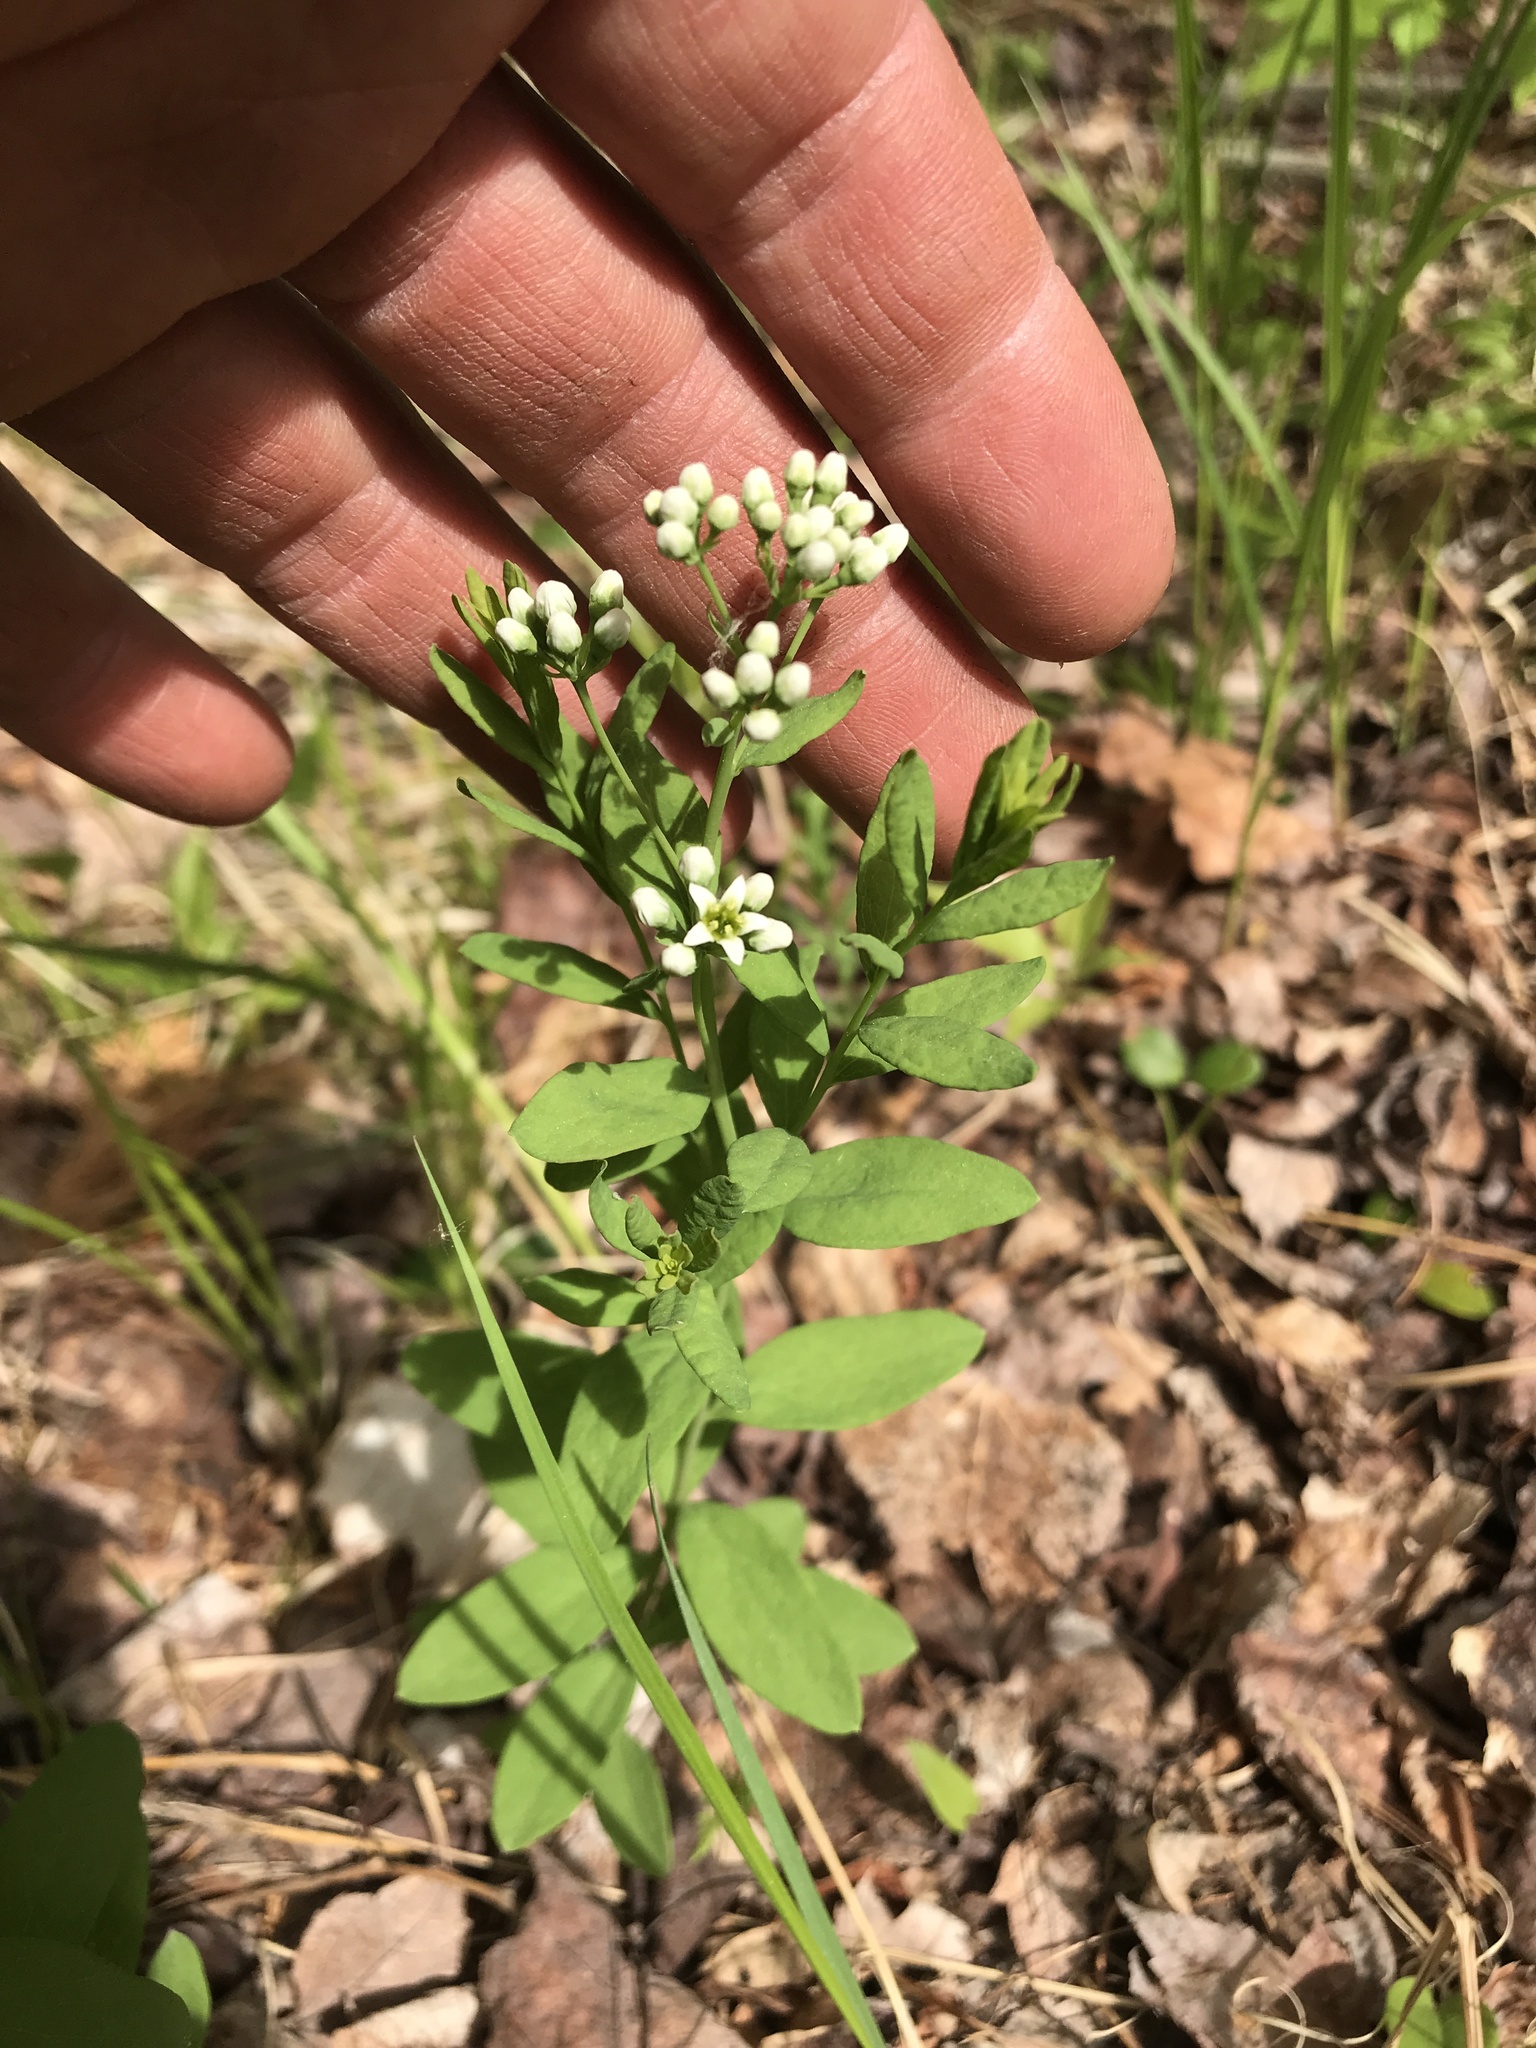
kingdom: Plantae
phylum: Tracheophyta
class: Magnoliopsida
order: Santalales
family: Comandraceae
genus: Comandra
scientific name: Comandra umbellata
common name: Bastard toadflax
